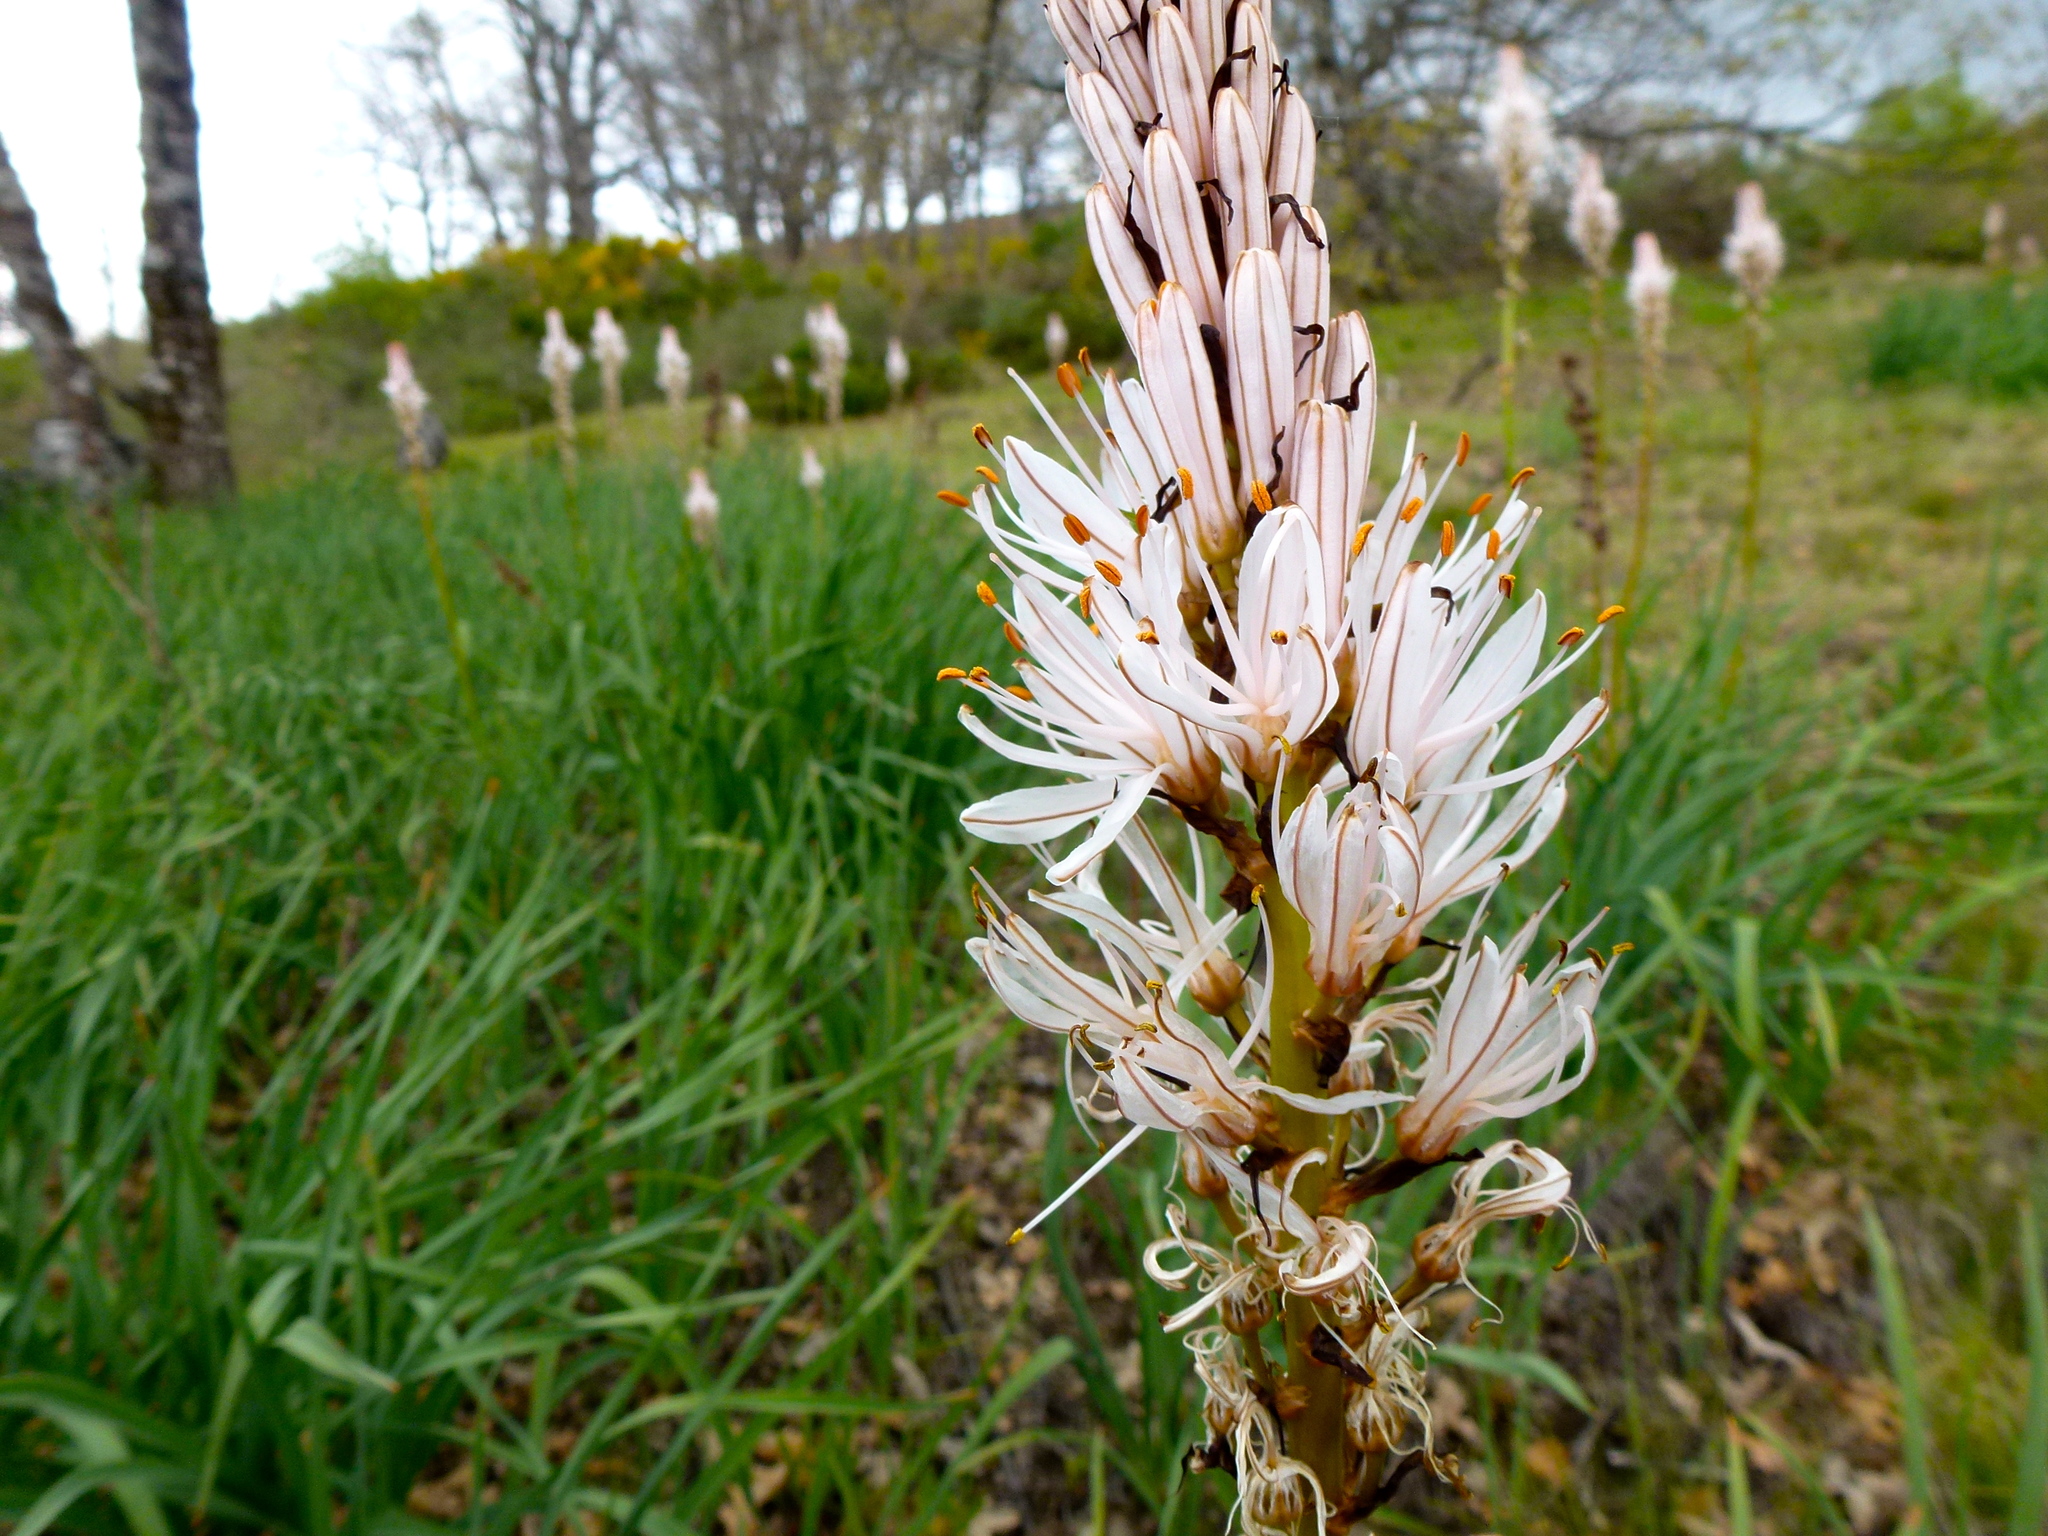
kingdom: Plantae
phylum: Tracheophyta
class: Liliopsida
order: Asparagales
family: Asphodelaceae
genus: Asphodelus
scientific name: Asphodelus albus
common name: White asphodel
